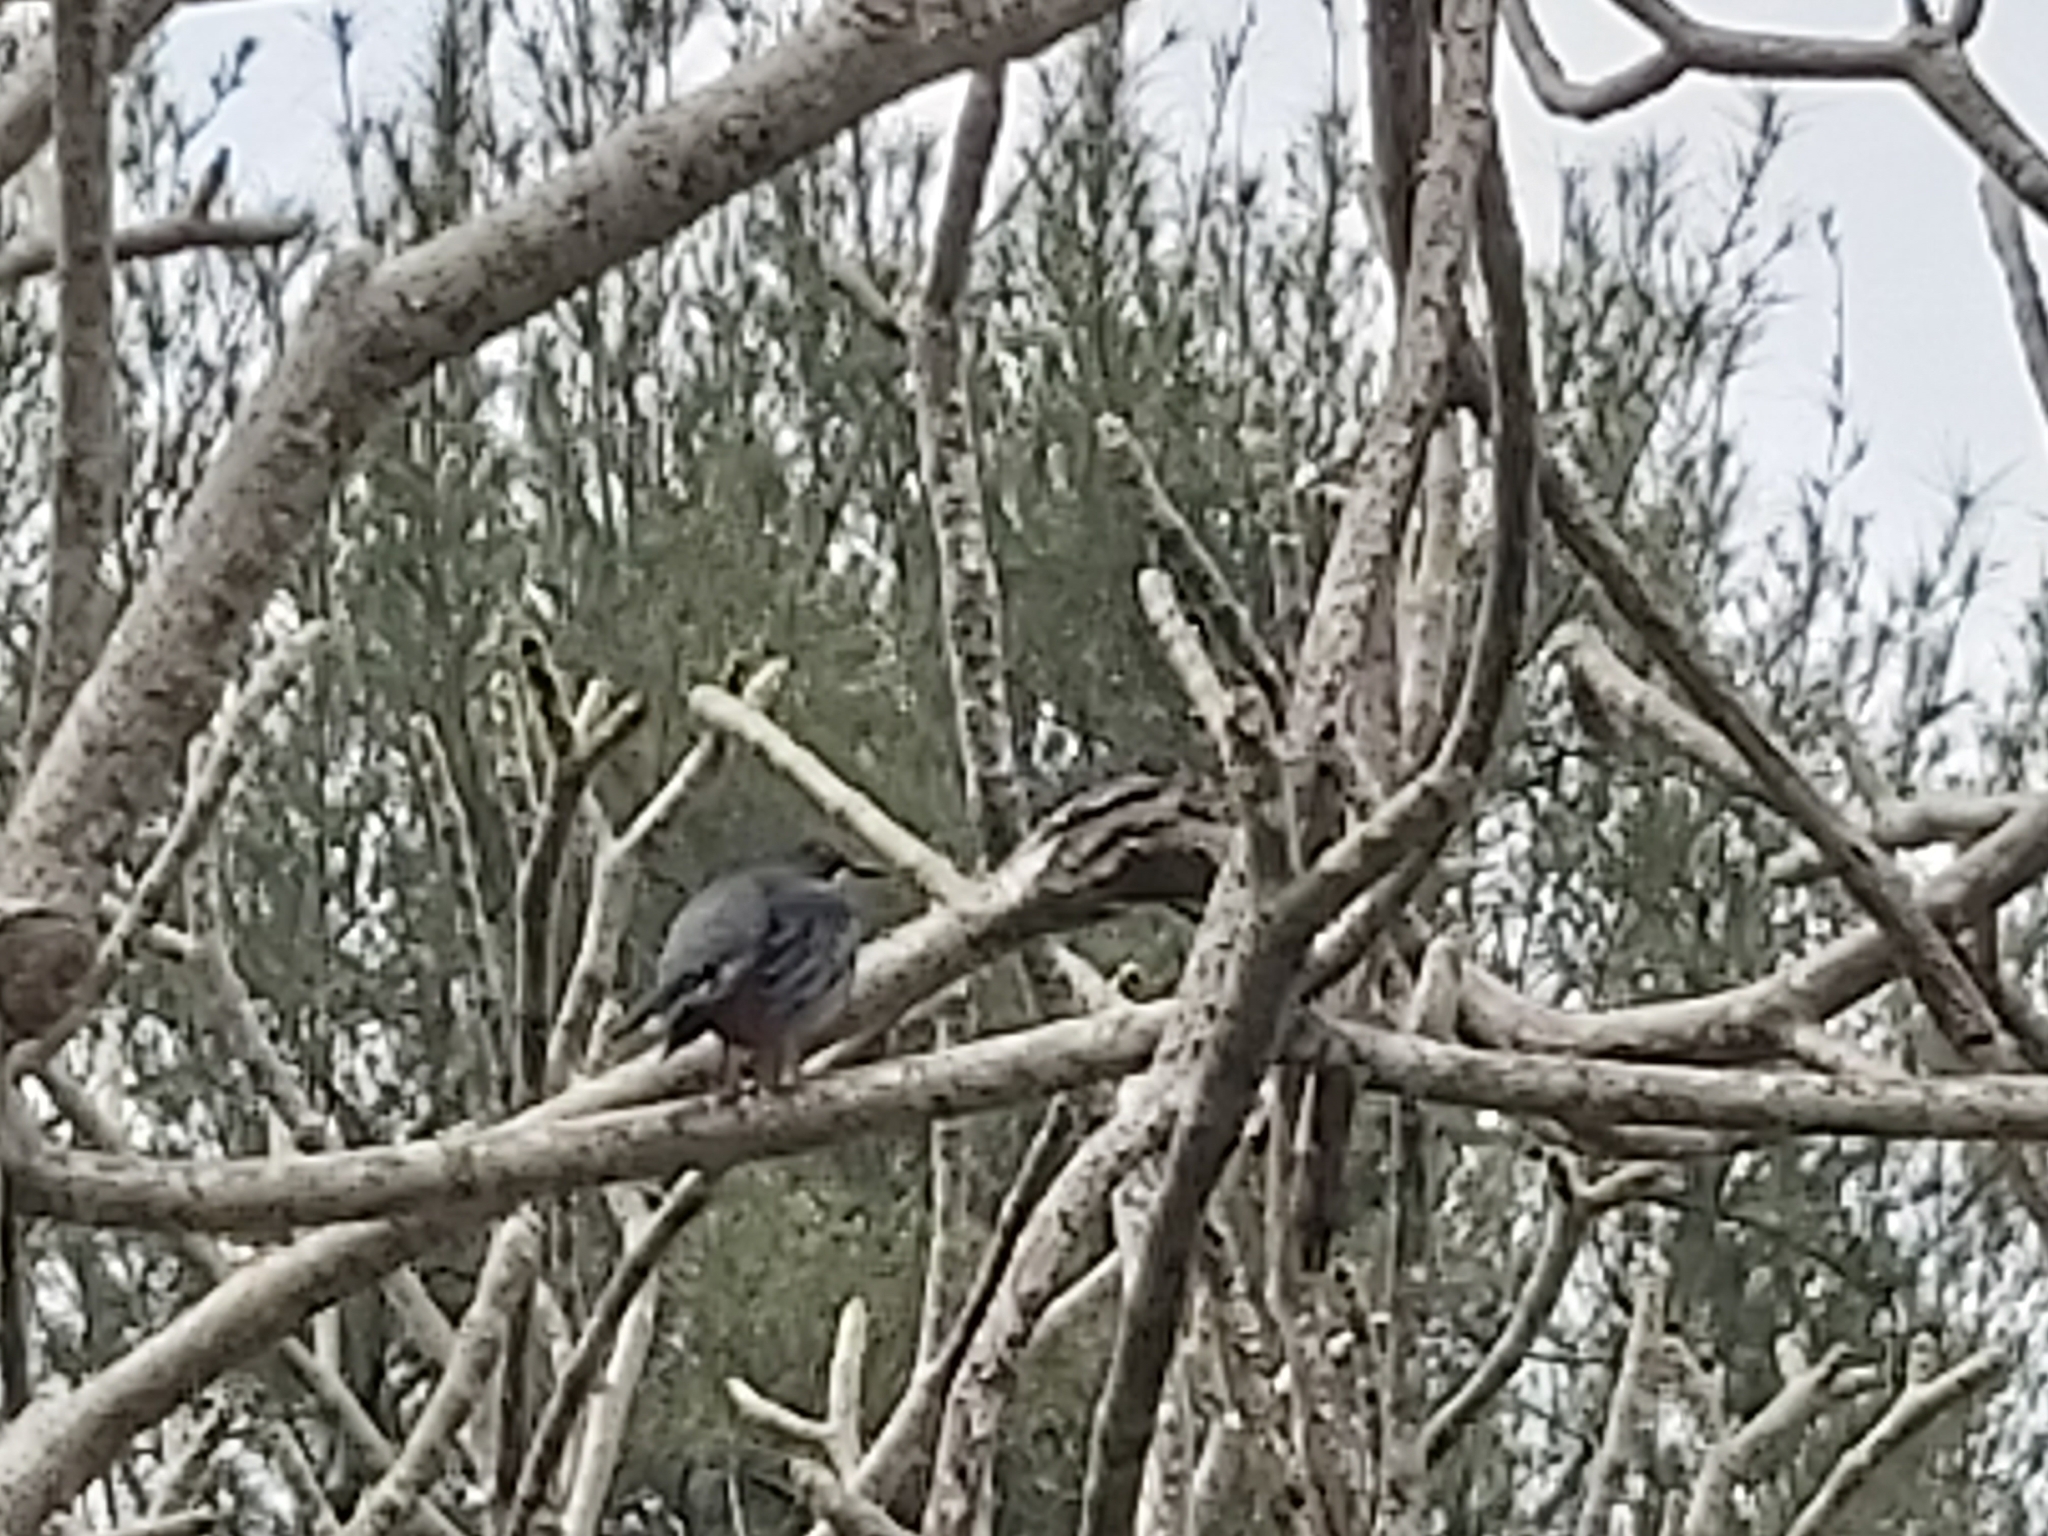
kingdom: Animalia
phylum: Chordata
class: Aves
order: Passeriformes
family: Turdidae
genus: Turdus
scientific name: Turdus plumbeus
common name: Red-legged thrush
